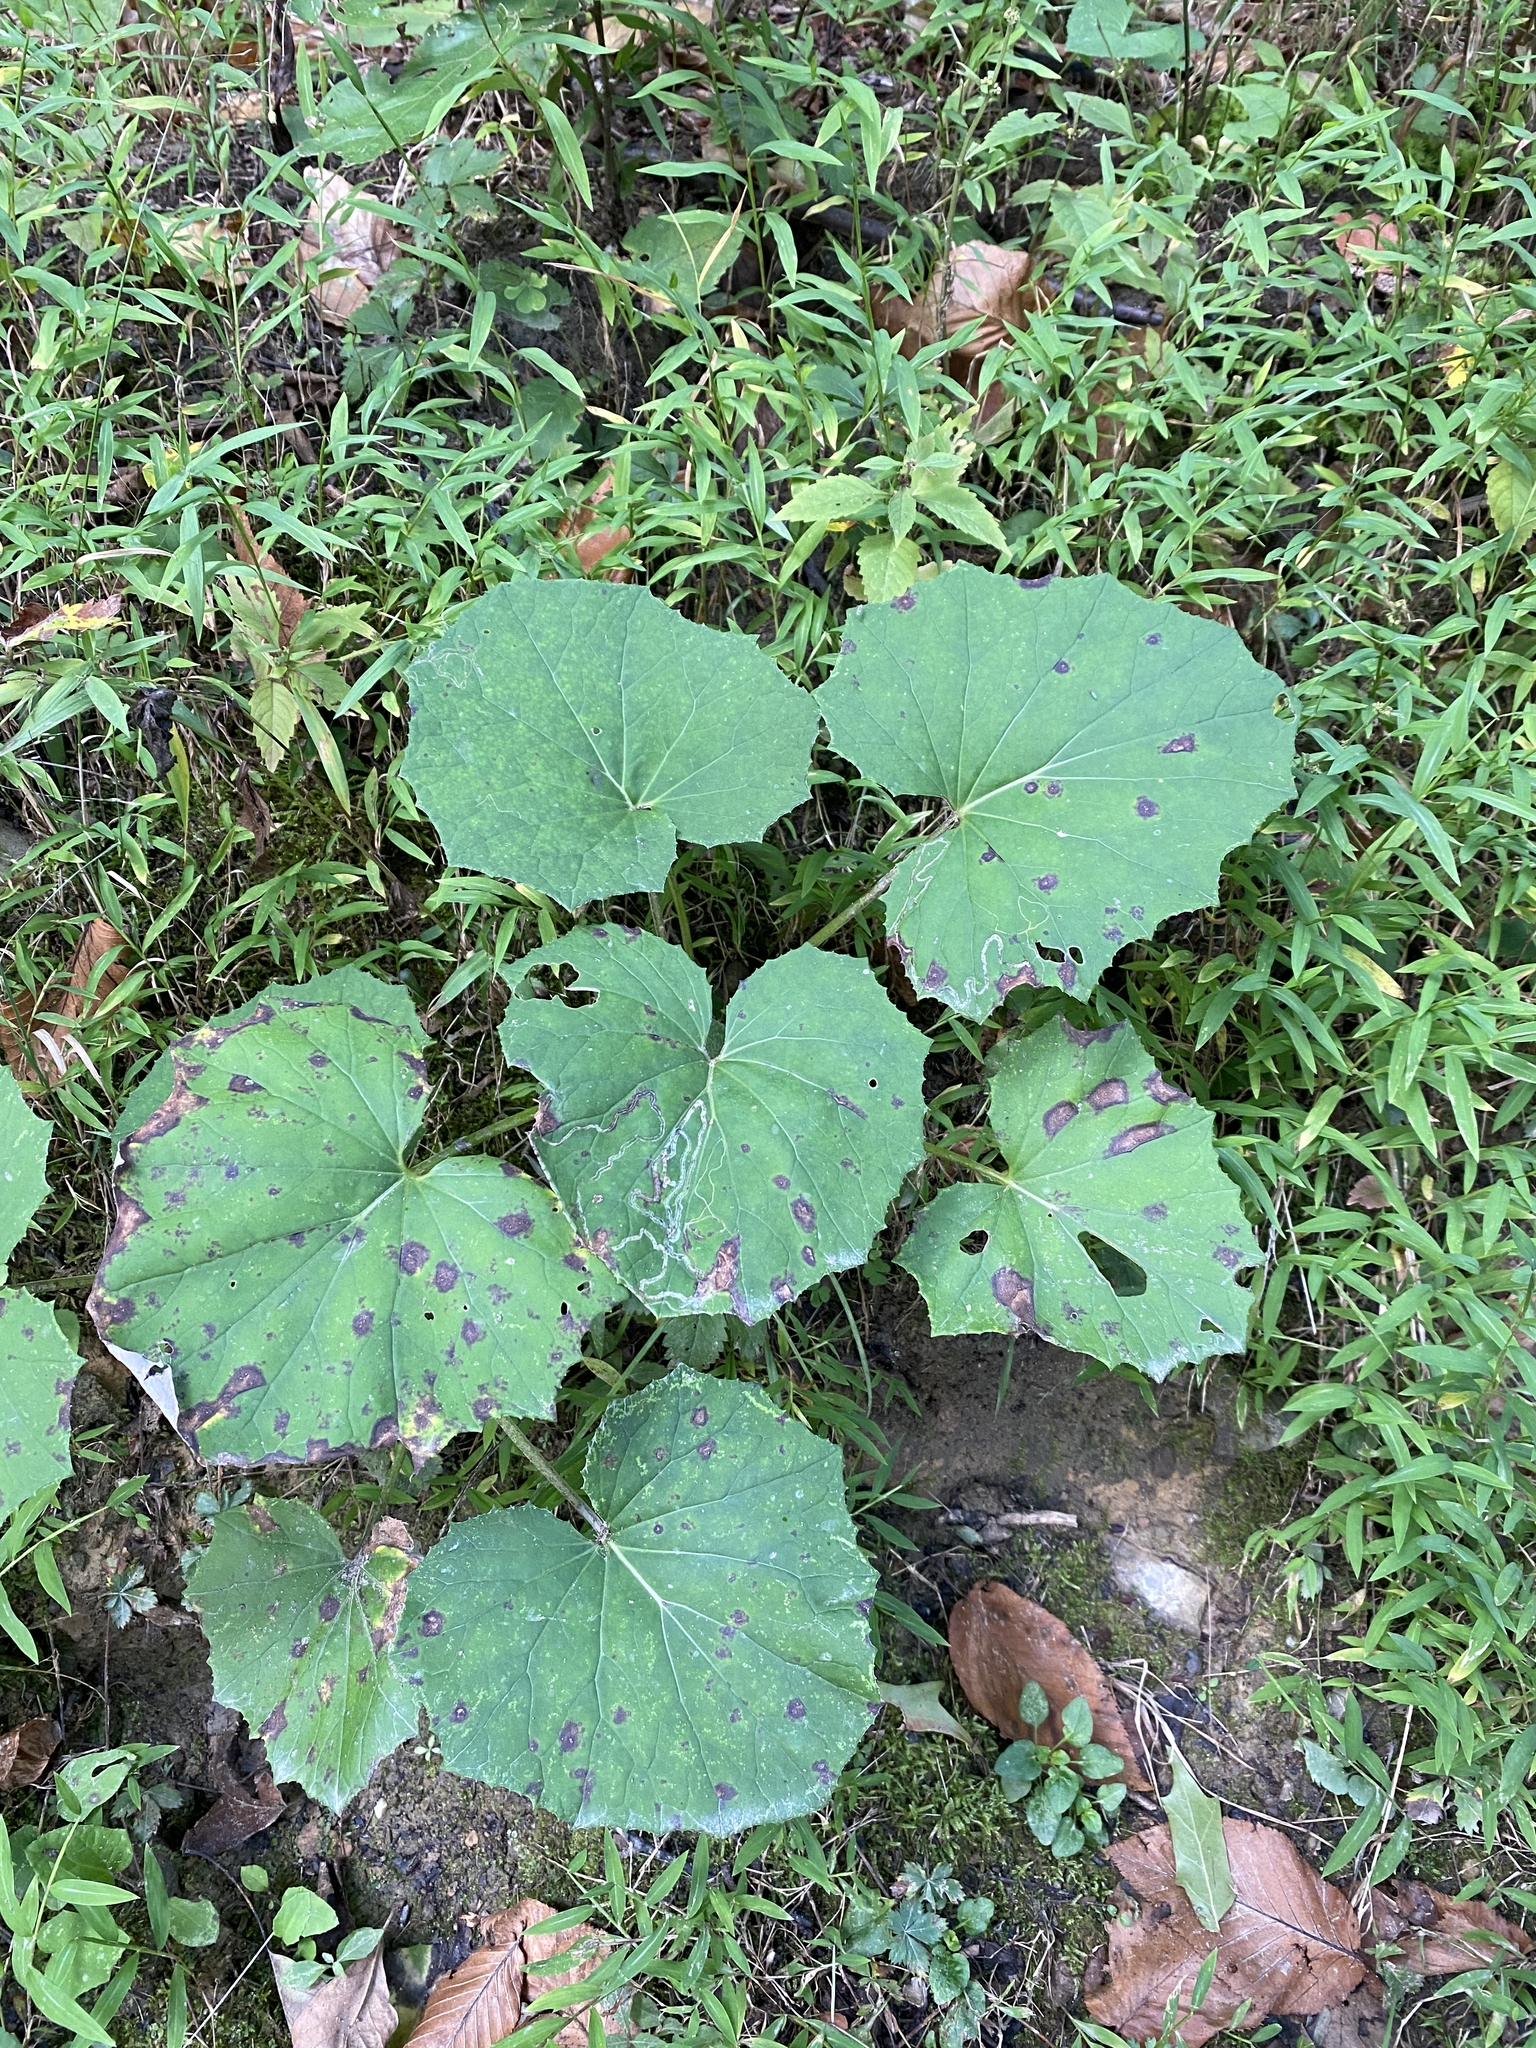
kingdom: Plantae
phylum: Tracheophyta
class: Magnoliopsida
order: Asterales
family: Asteraceae
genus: Tussilago
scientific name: Tussilago farfara
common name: Coltsfoot
